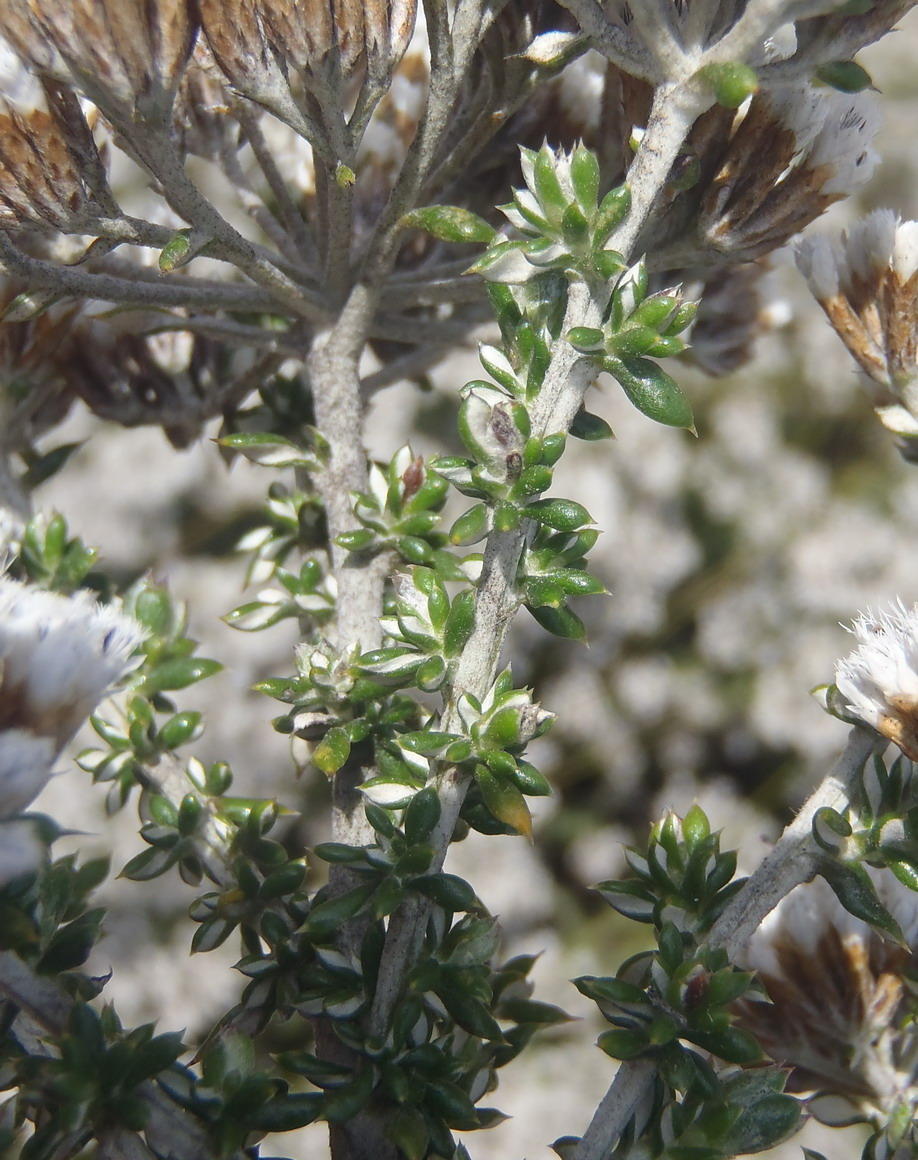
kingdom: Plantae
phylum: Tracheophyta
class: Magnoliopsida
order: Asterales
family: Asteraceae
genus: Metalasia
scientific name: Metalasia densa
